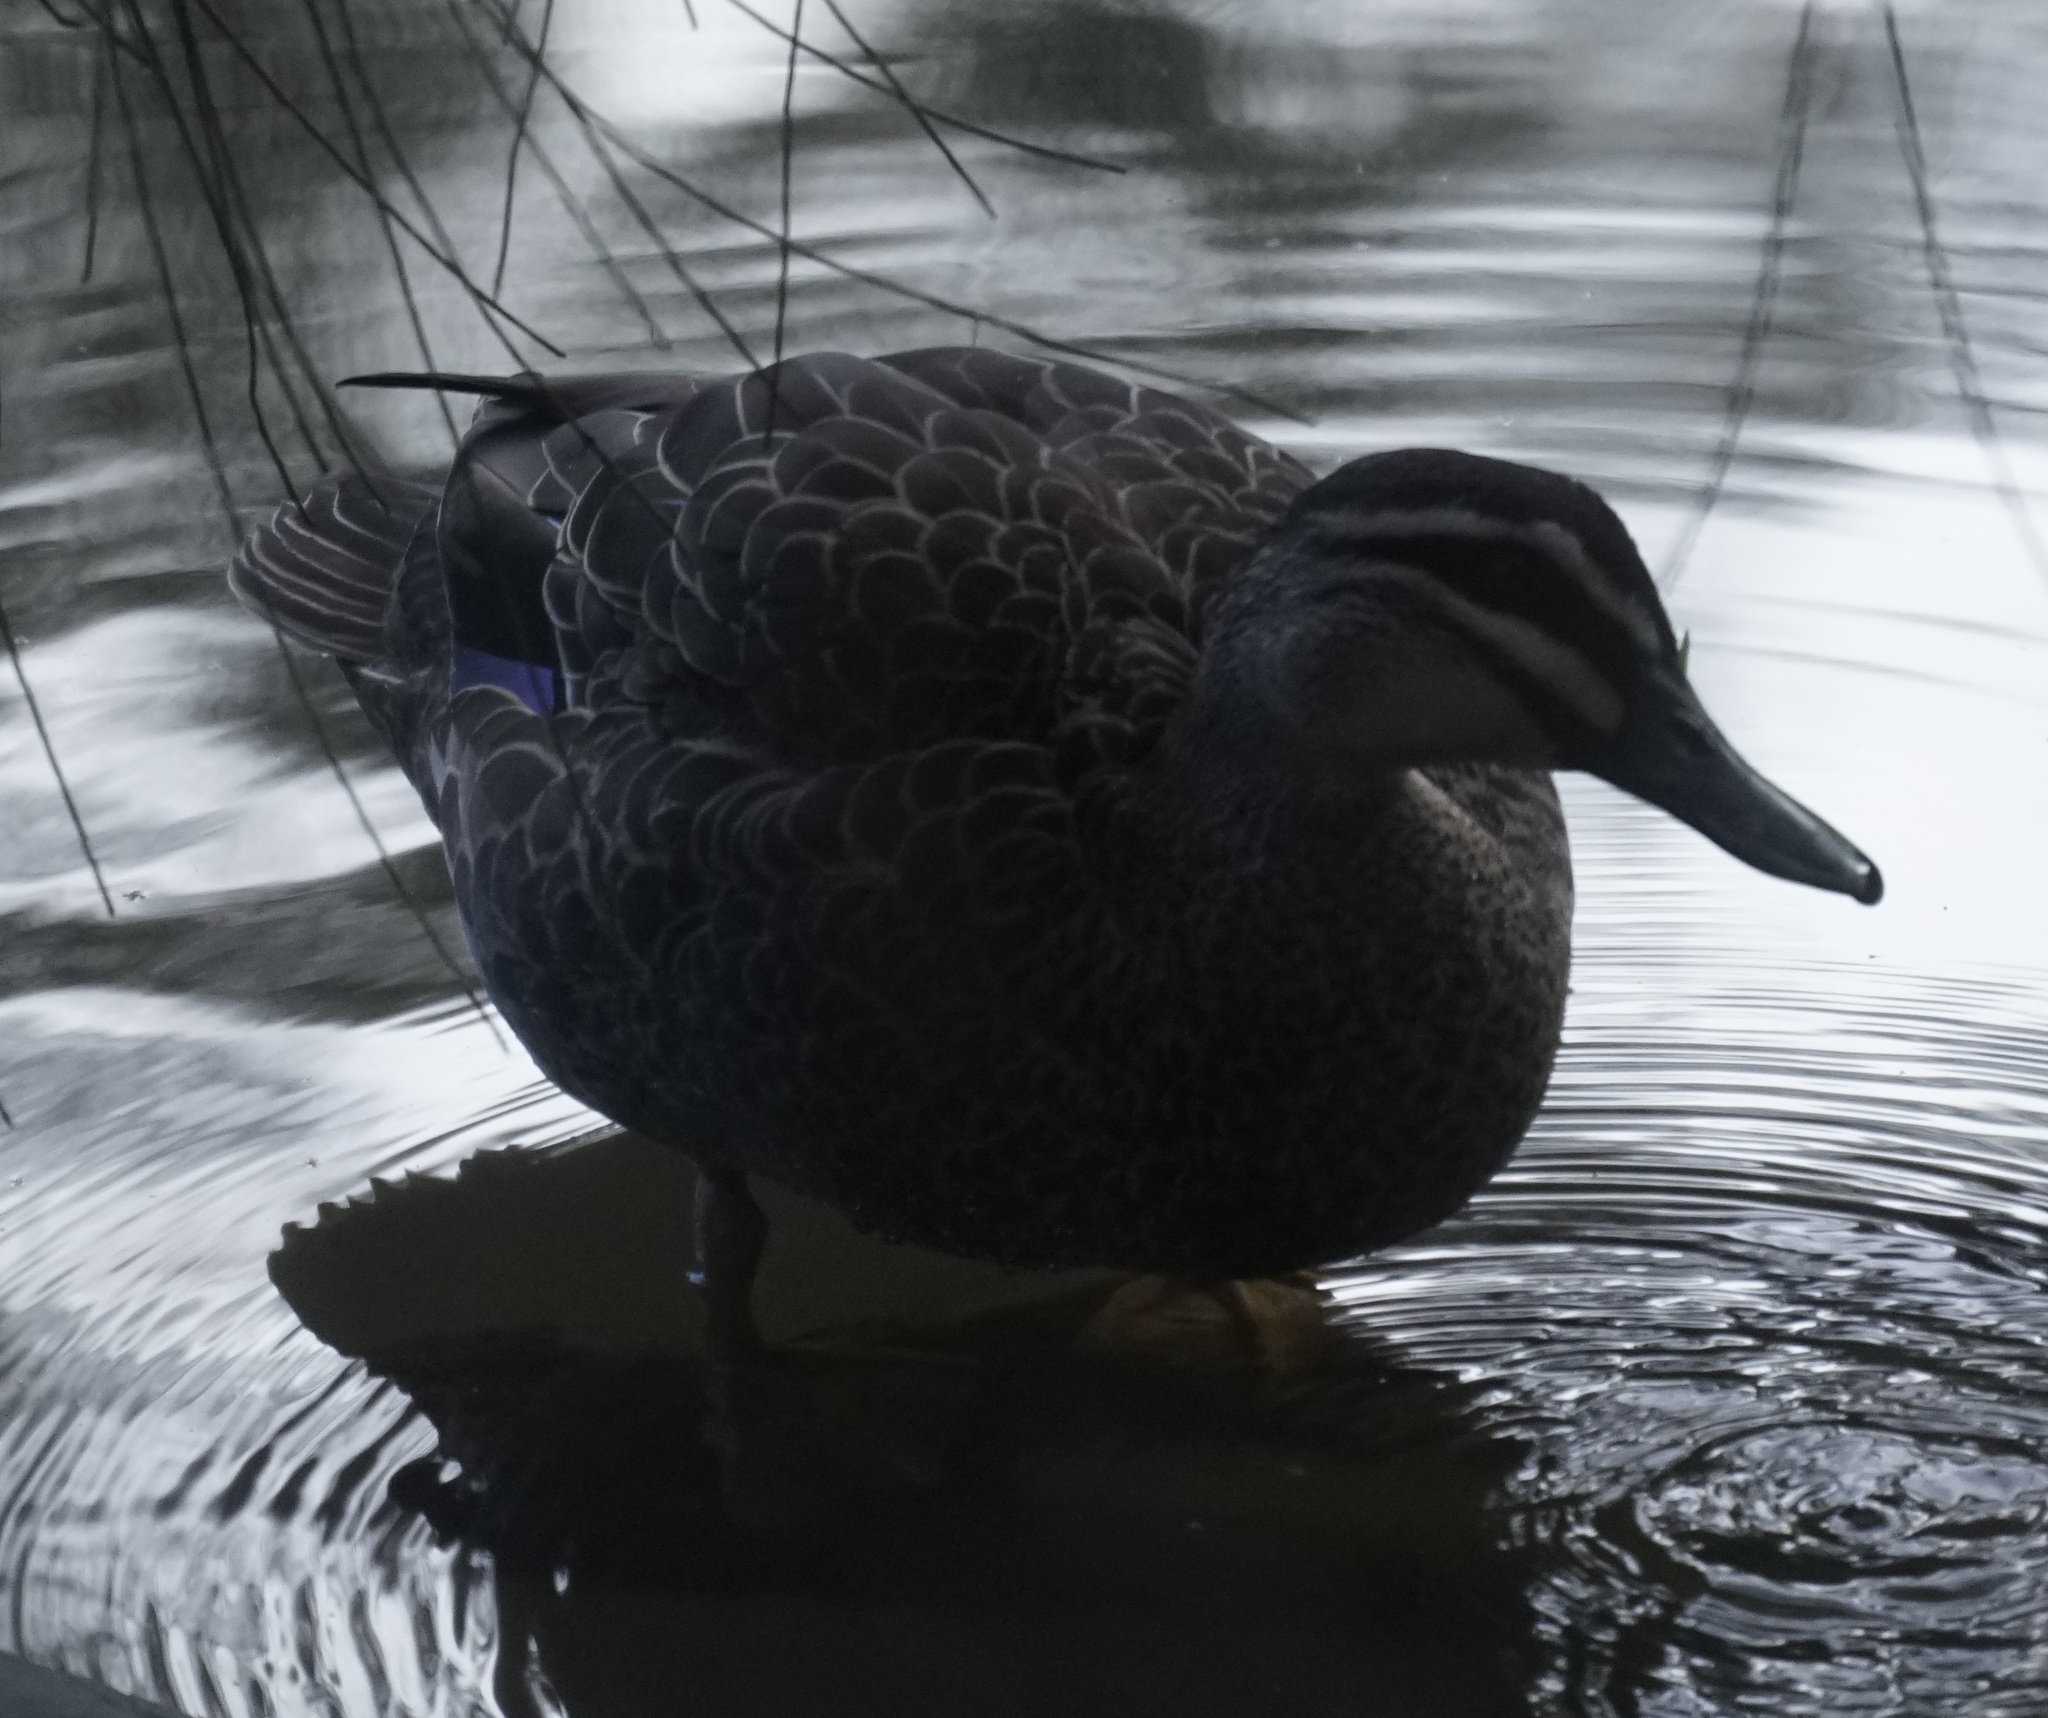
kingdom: Animalia
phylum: Chordata
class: Aves
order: Anseriformes
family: Anatidae
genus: Anas
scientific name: Anas superciliosa
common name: Pacific black duck
